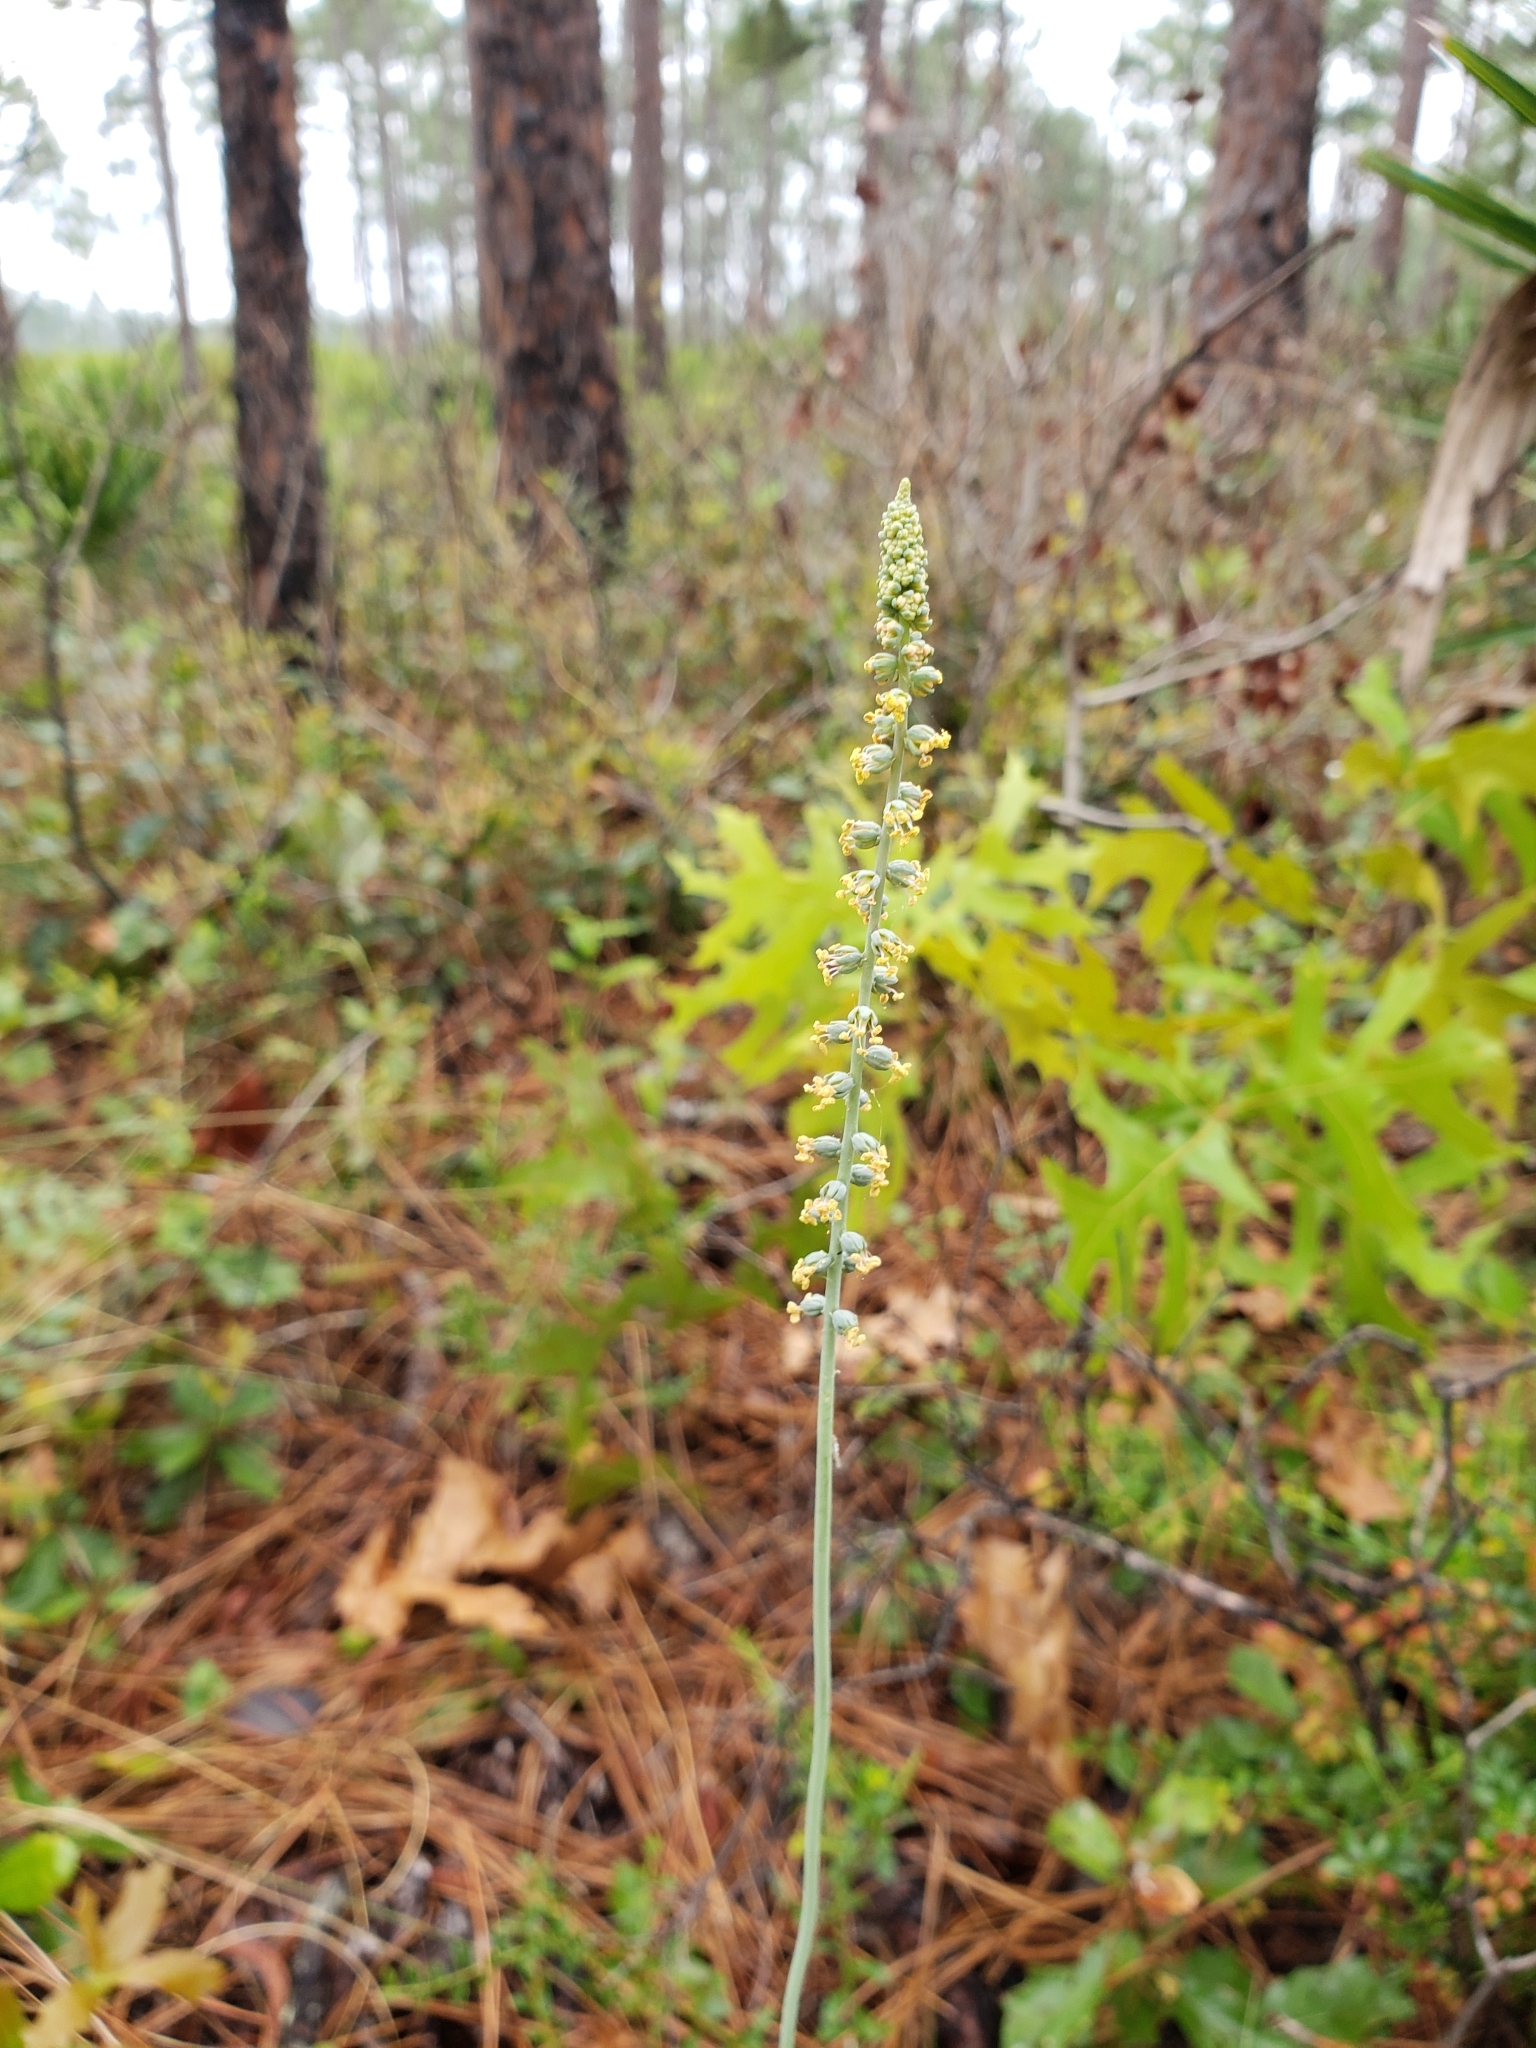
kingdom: Plantae
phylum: Tracheophyta
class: Liliopsida
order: Liliales
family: Melanthiaceae
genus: Schoenocaulon
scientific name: Schoenocaulon dubium
